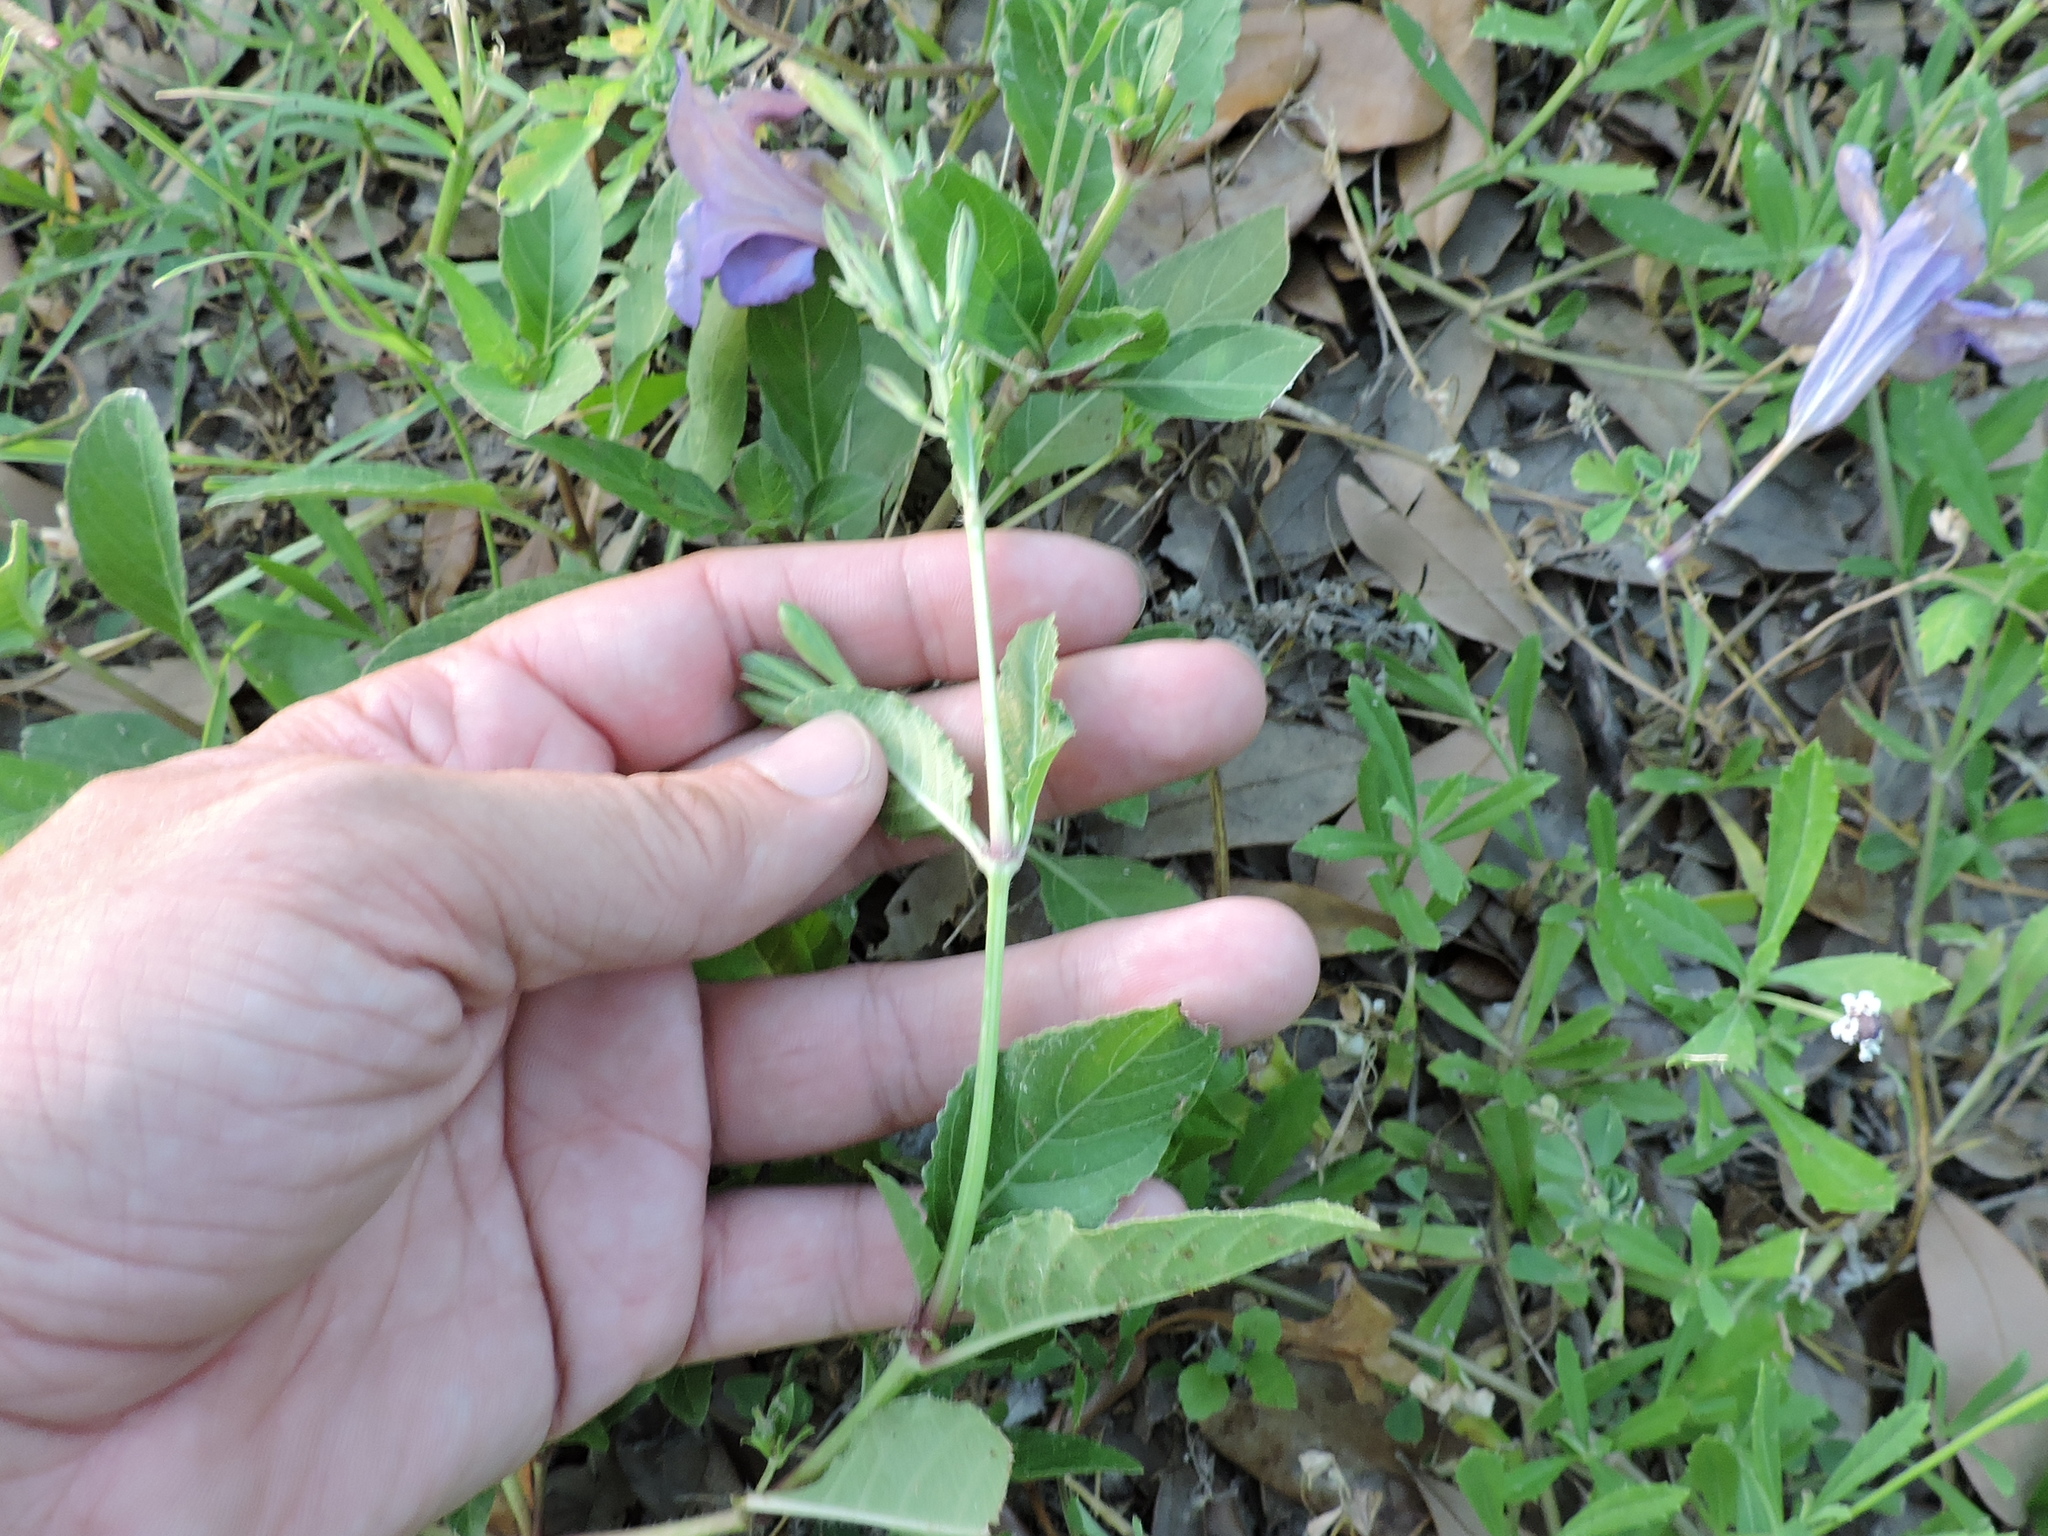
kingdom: Plantae
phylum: Tracheophyta
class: Magnoliopsida
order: Lamiales
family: Acanthaceae
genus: Ruellia
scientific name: Ruellia ciliatiflora
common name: Hairyflower wild petunia
